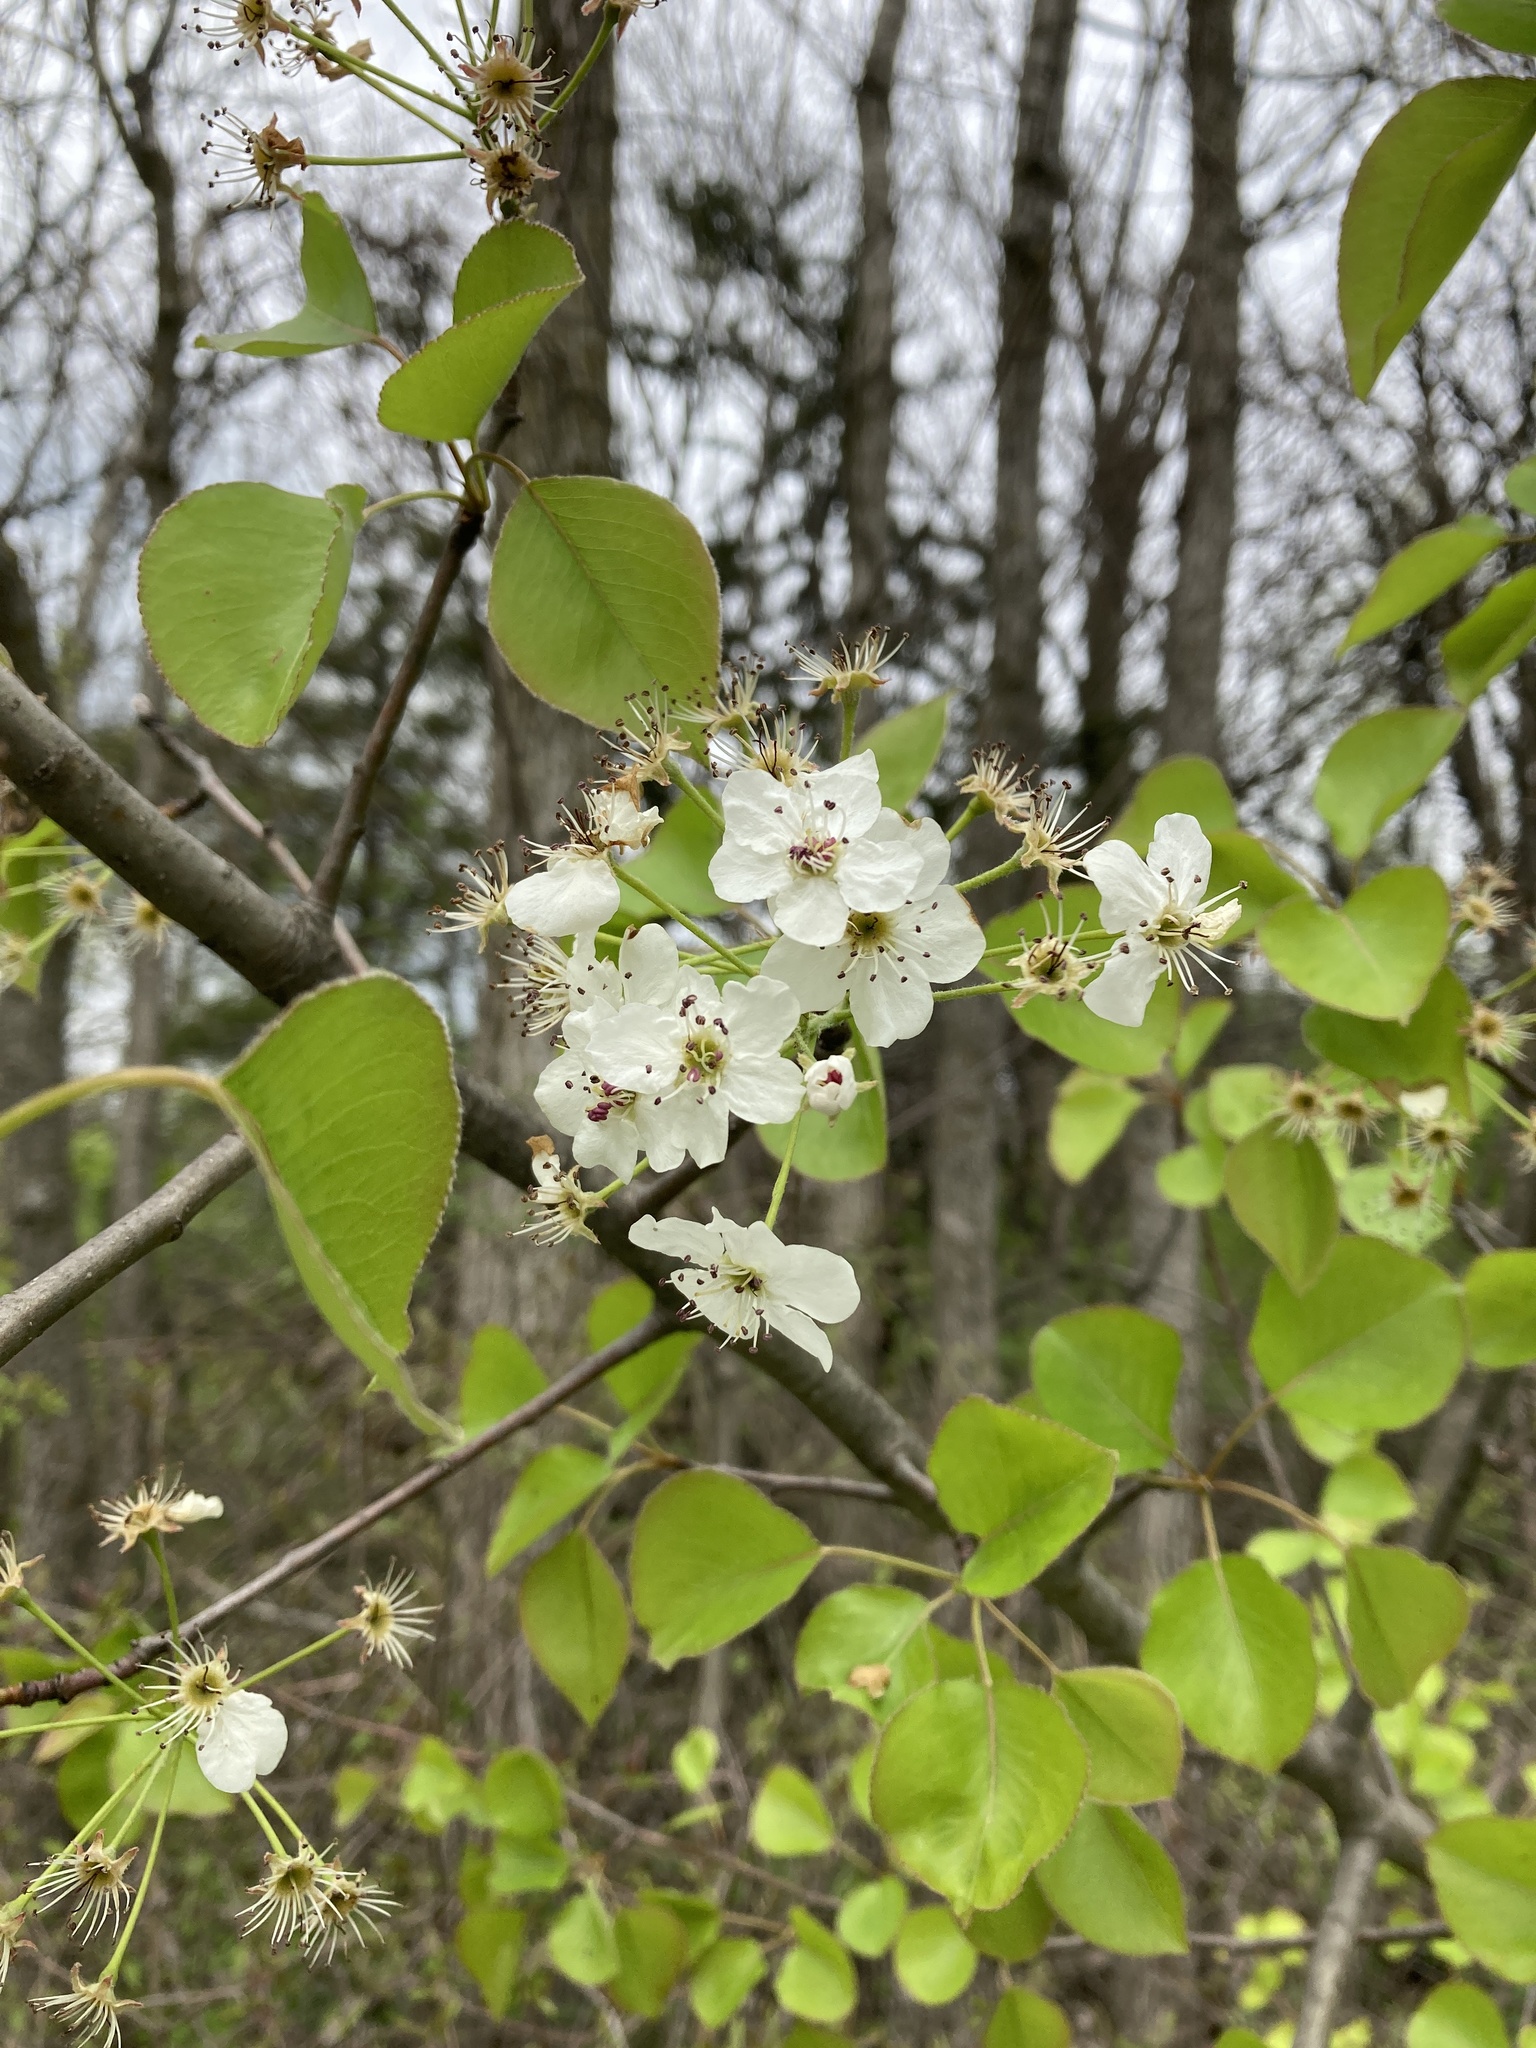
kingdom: Plantae
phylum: Tracheophyta
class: Magnoliopsida
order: Rosales
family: Rosaceae
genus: Pyrus
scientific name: Pyrus calleryana
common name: Callery pear
